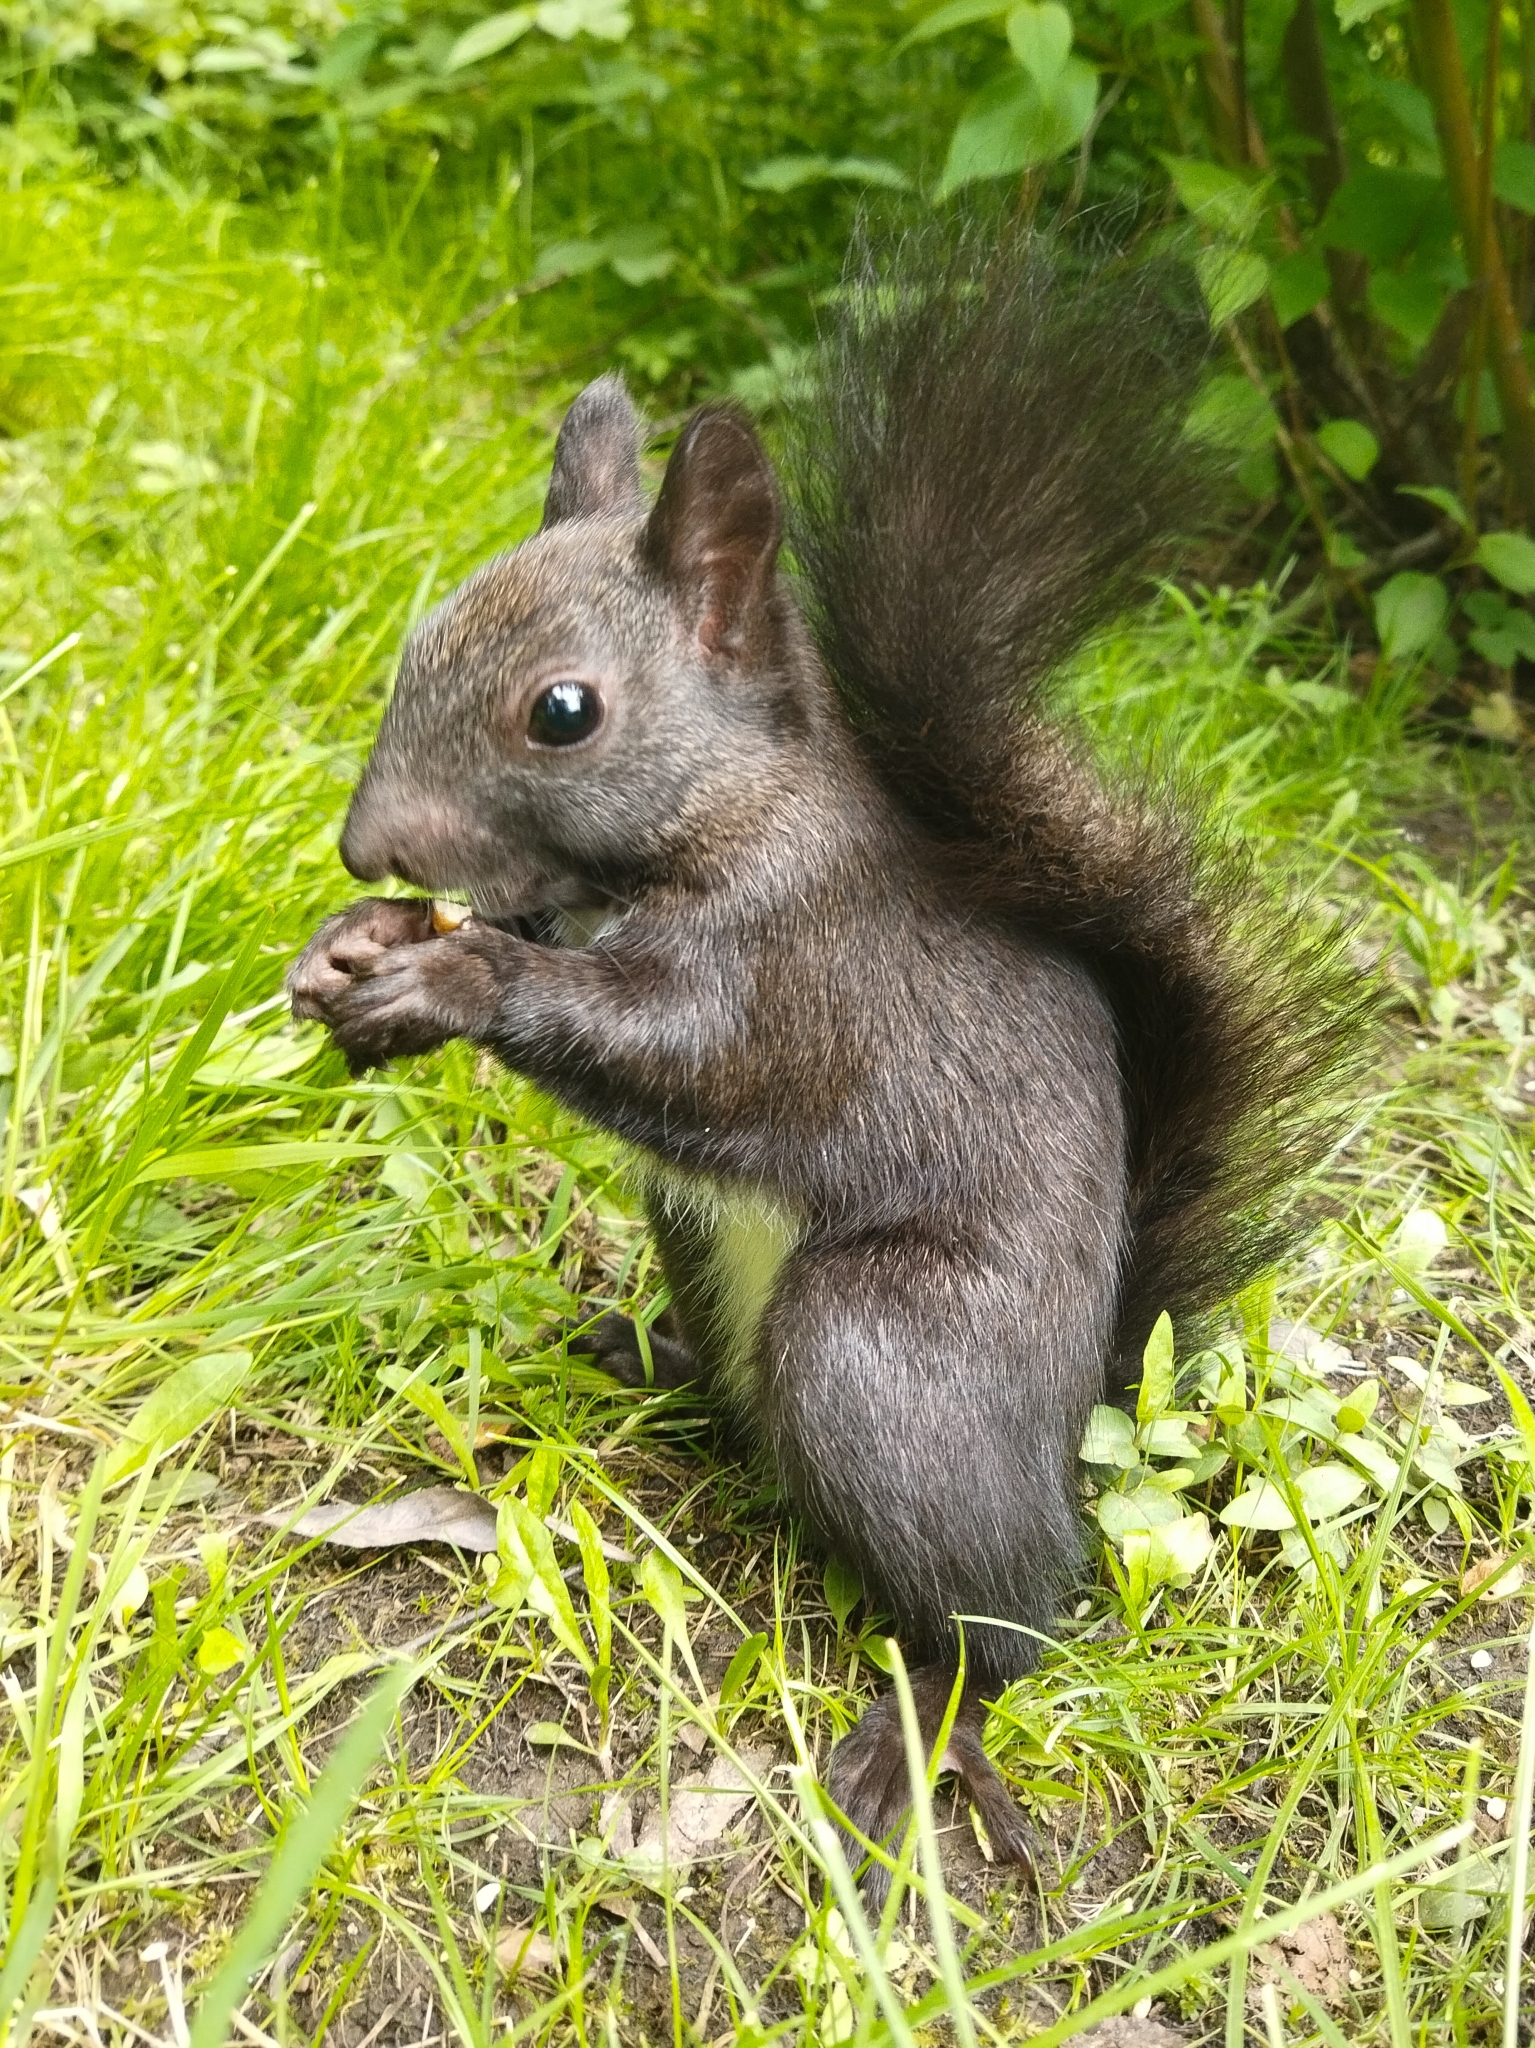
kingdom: Animalia
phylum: Chordata
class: Mammalia
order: Rodentia
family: Sciuridae
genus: Sciurus
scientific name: Sciurus vulgaris
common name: Eurasian red squirrel
